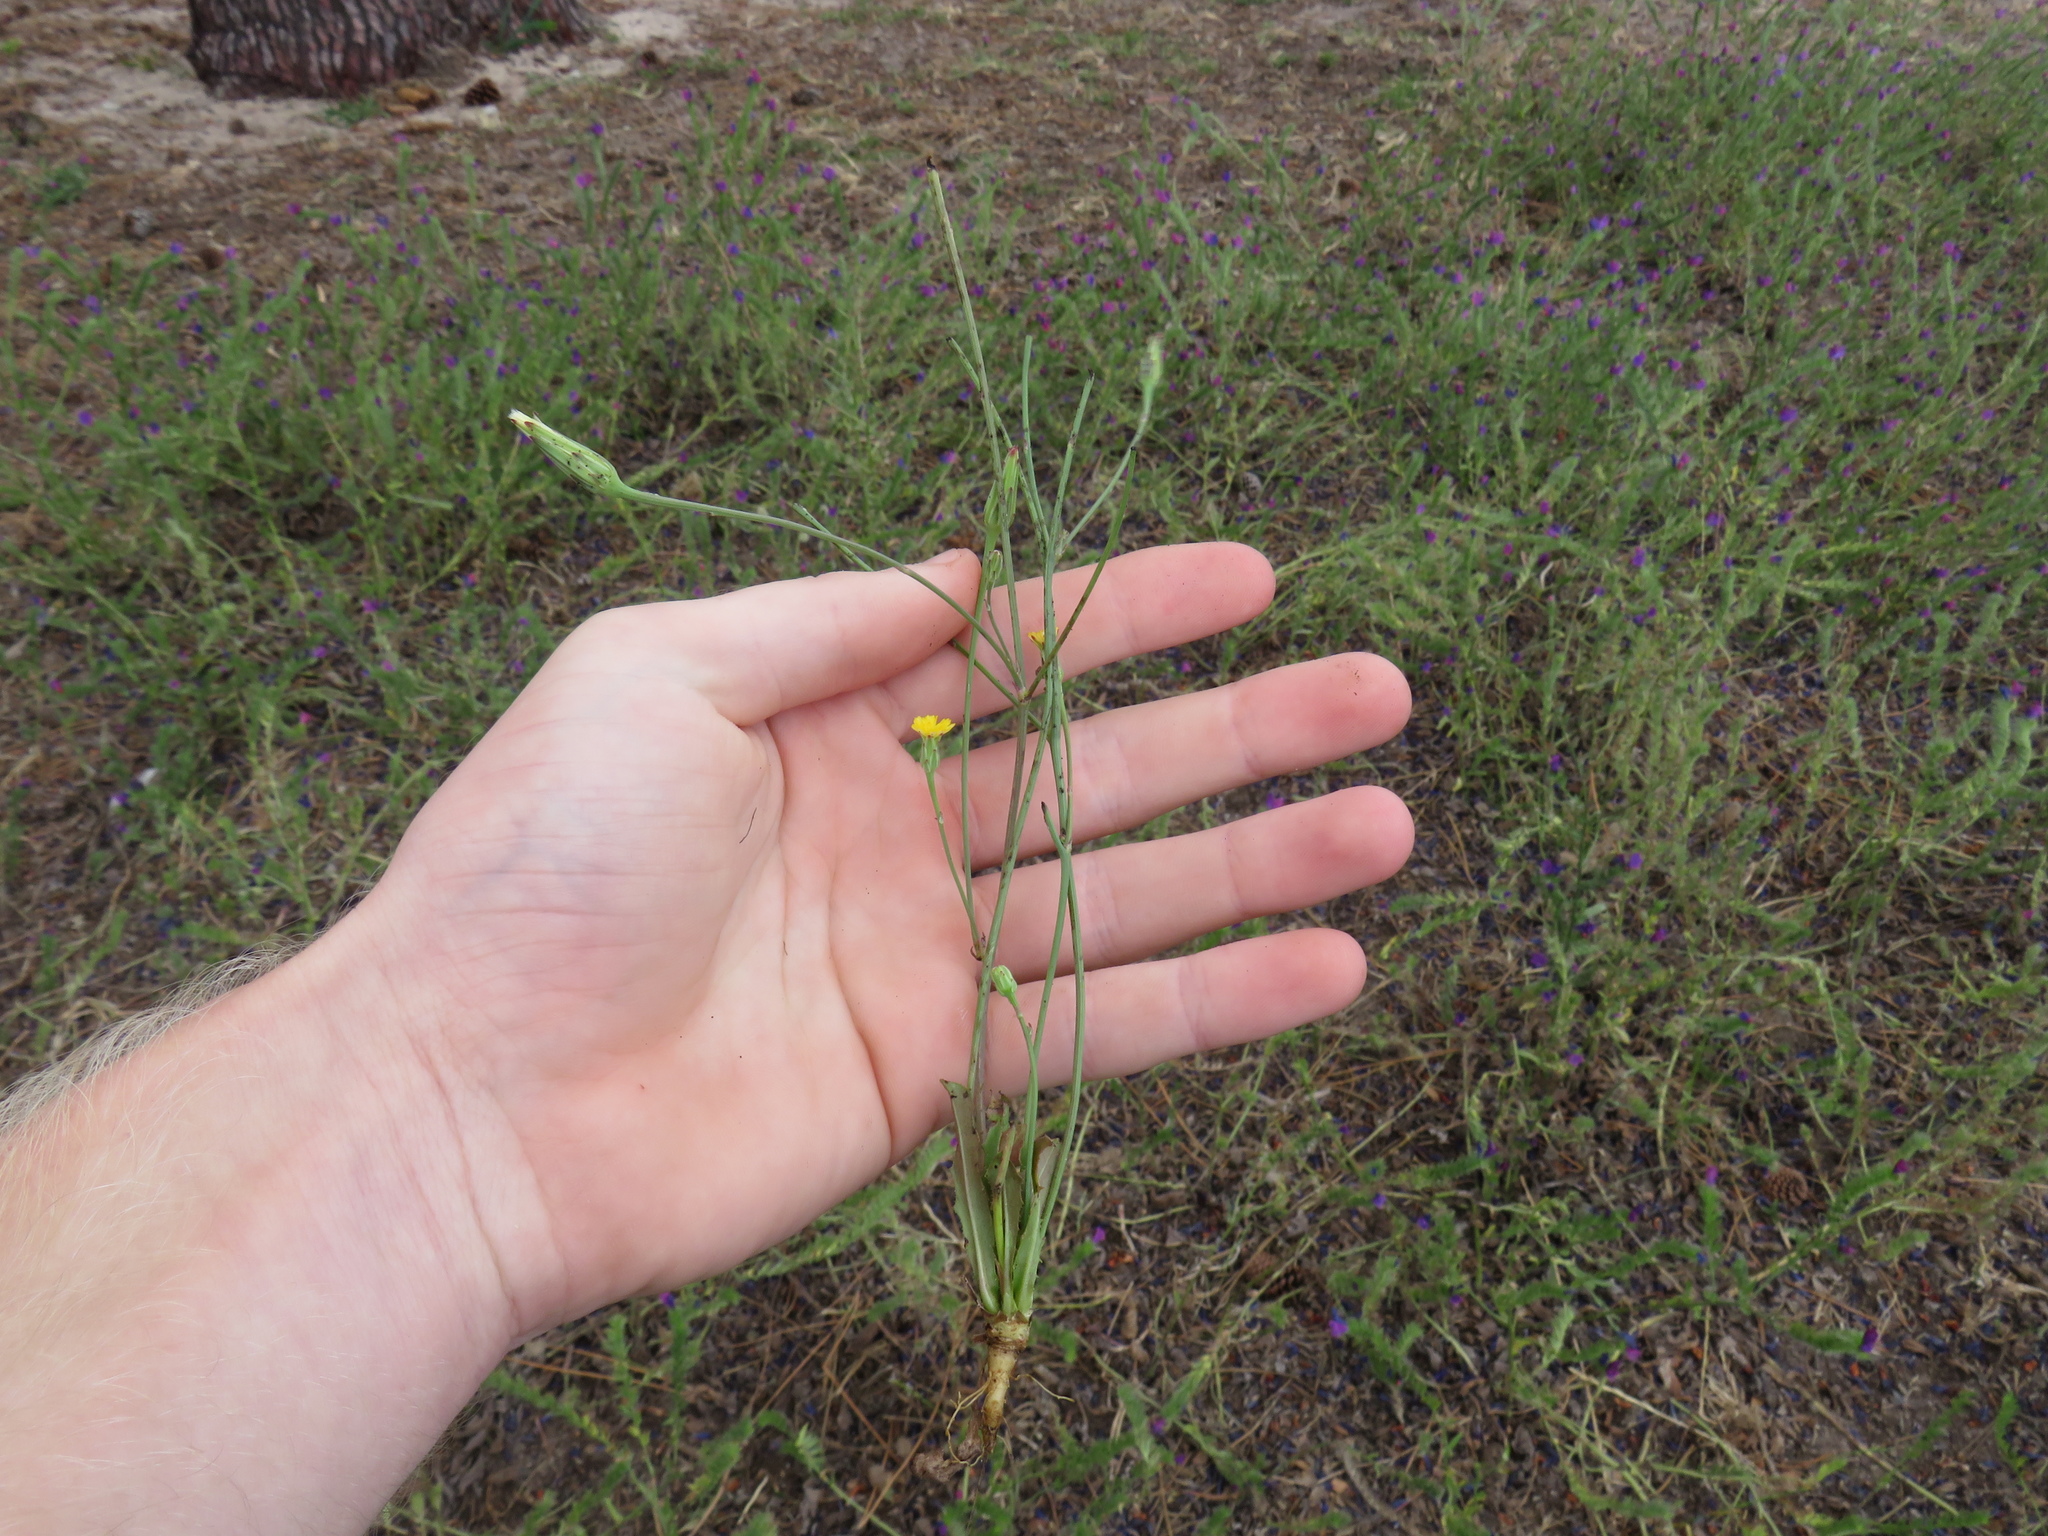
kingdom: Plantae
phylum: Tracheophyta
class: Magnoliopsida
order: Asterales
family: Asteraceae
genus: Hypochaeris
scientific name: Hypochaeris glabra
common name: Smooth catsear
